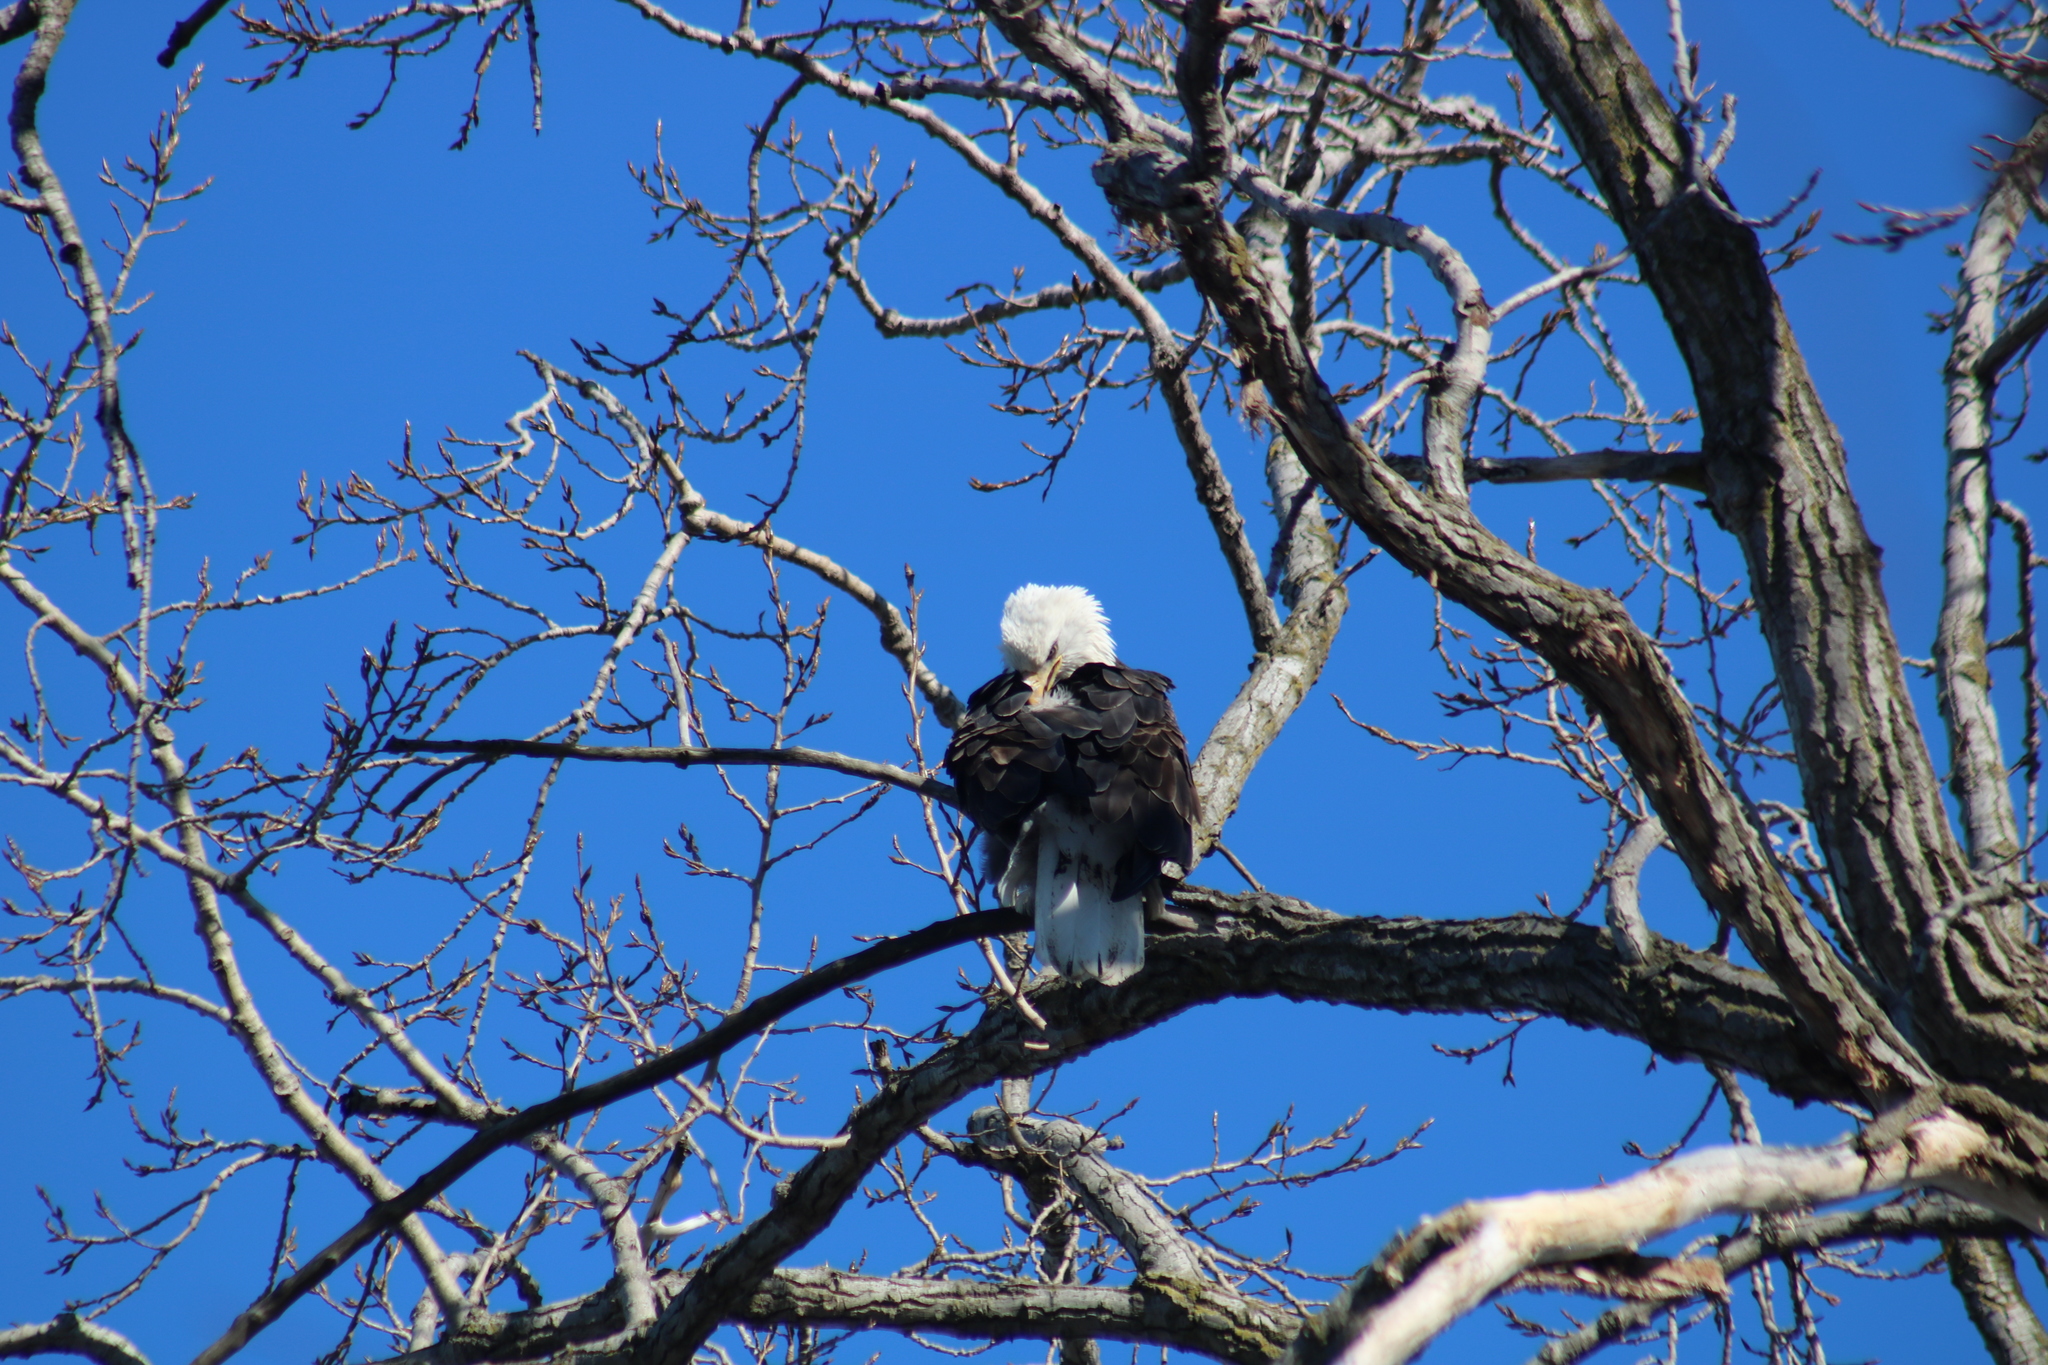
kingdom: Animalia
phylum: Chordata
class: Aves
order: Accipitriformes
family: Accipitridae
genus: Haliaeetus
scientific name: Haliaeetus leucocephalus
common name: Bald eagle
